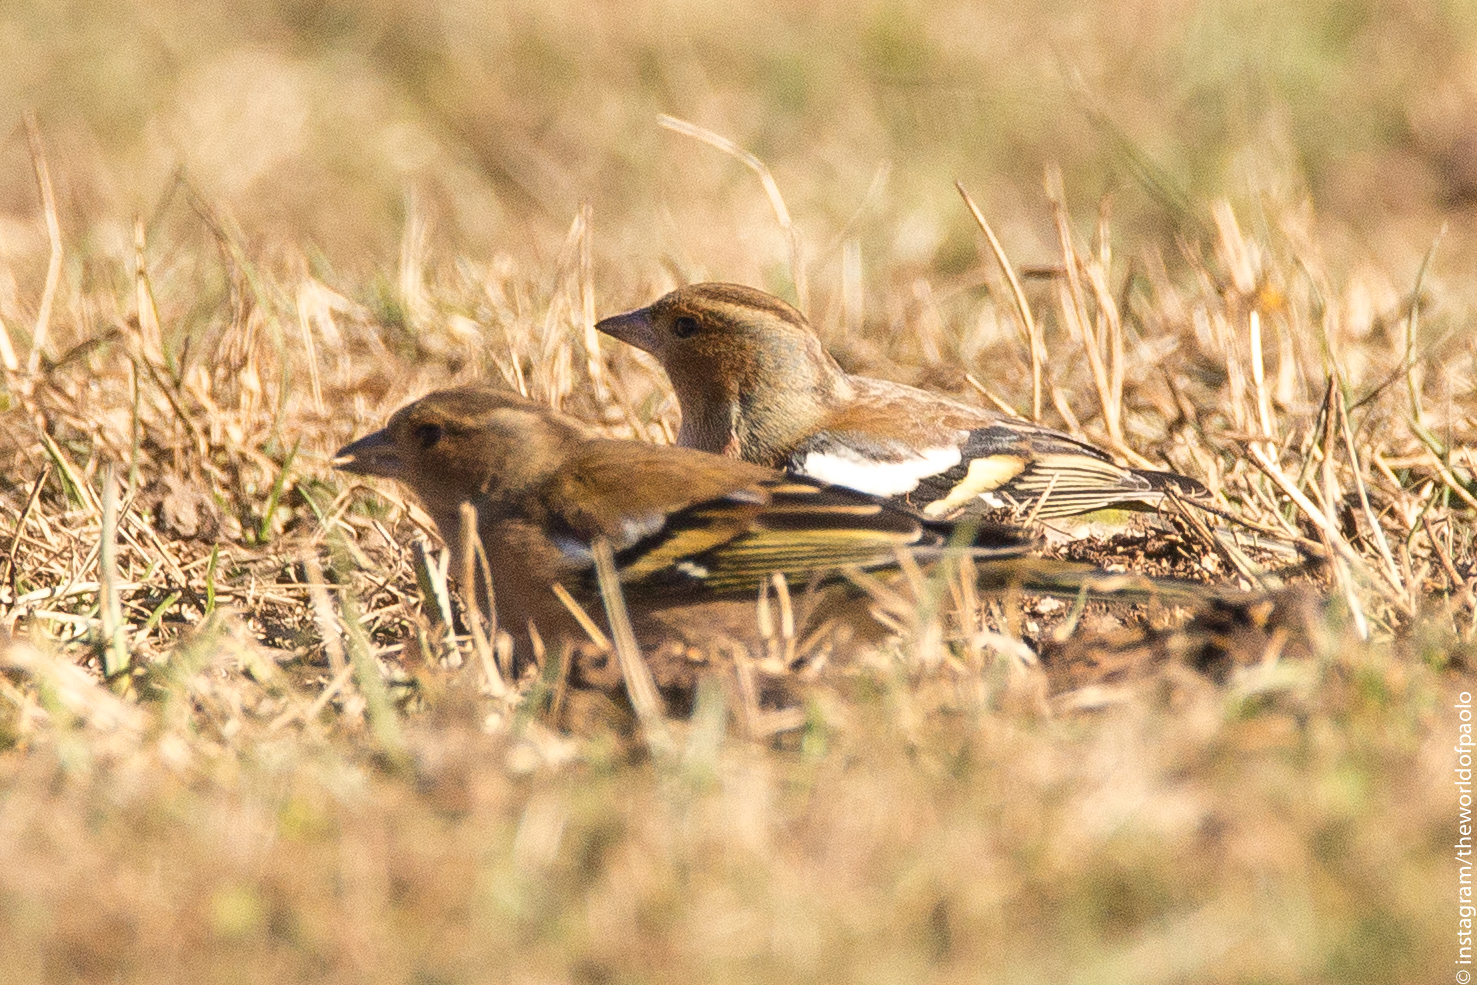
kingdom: Animalia
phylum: Chordata
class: Aves
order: Passeriformes
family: Fringillidae
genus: Fringilla
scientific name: Fringilla coelebs
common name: Common chaffinch
